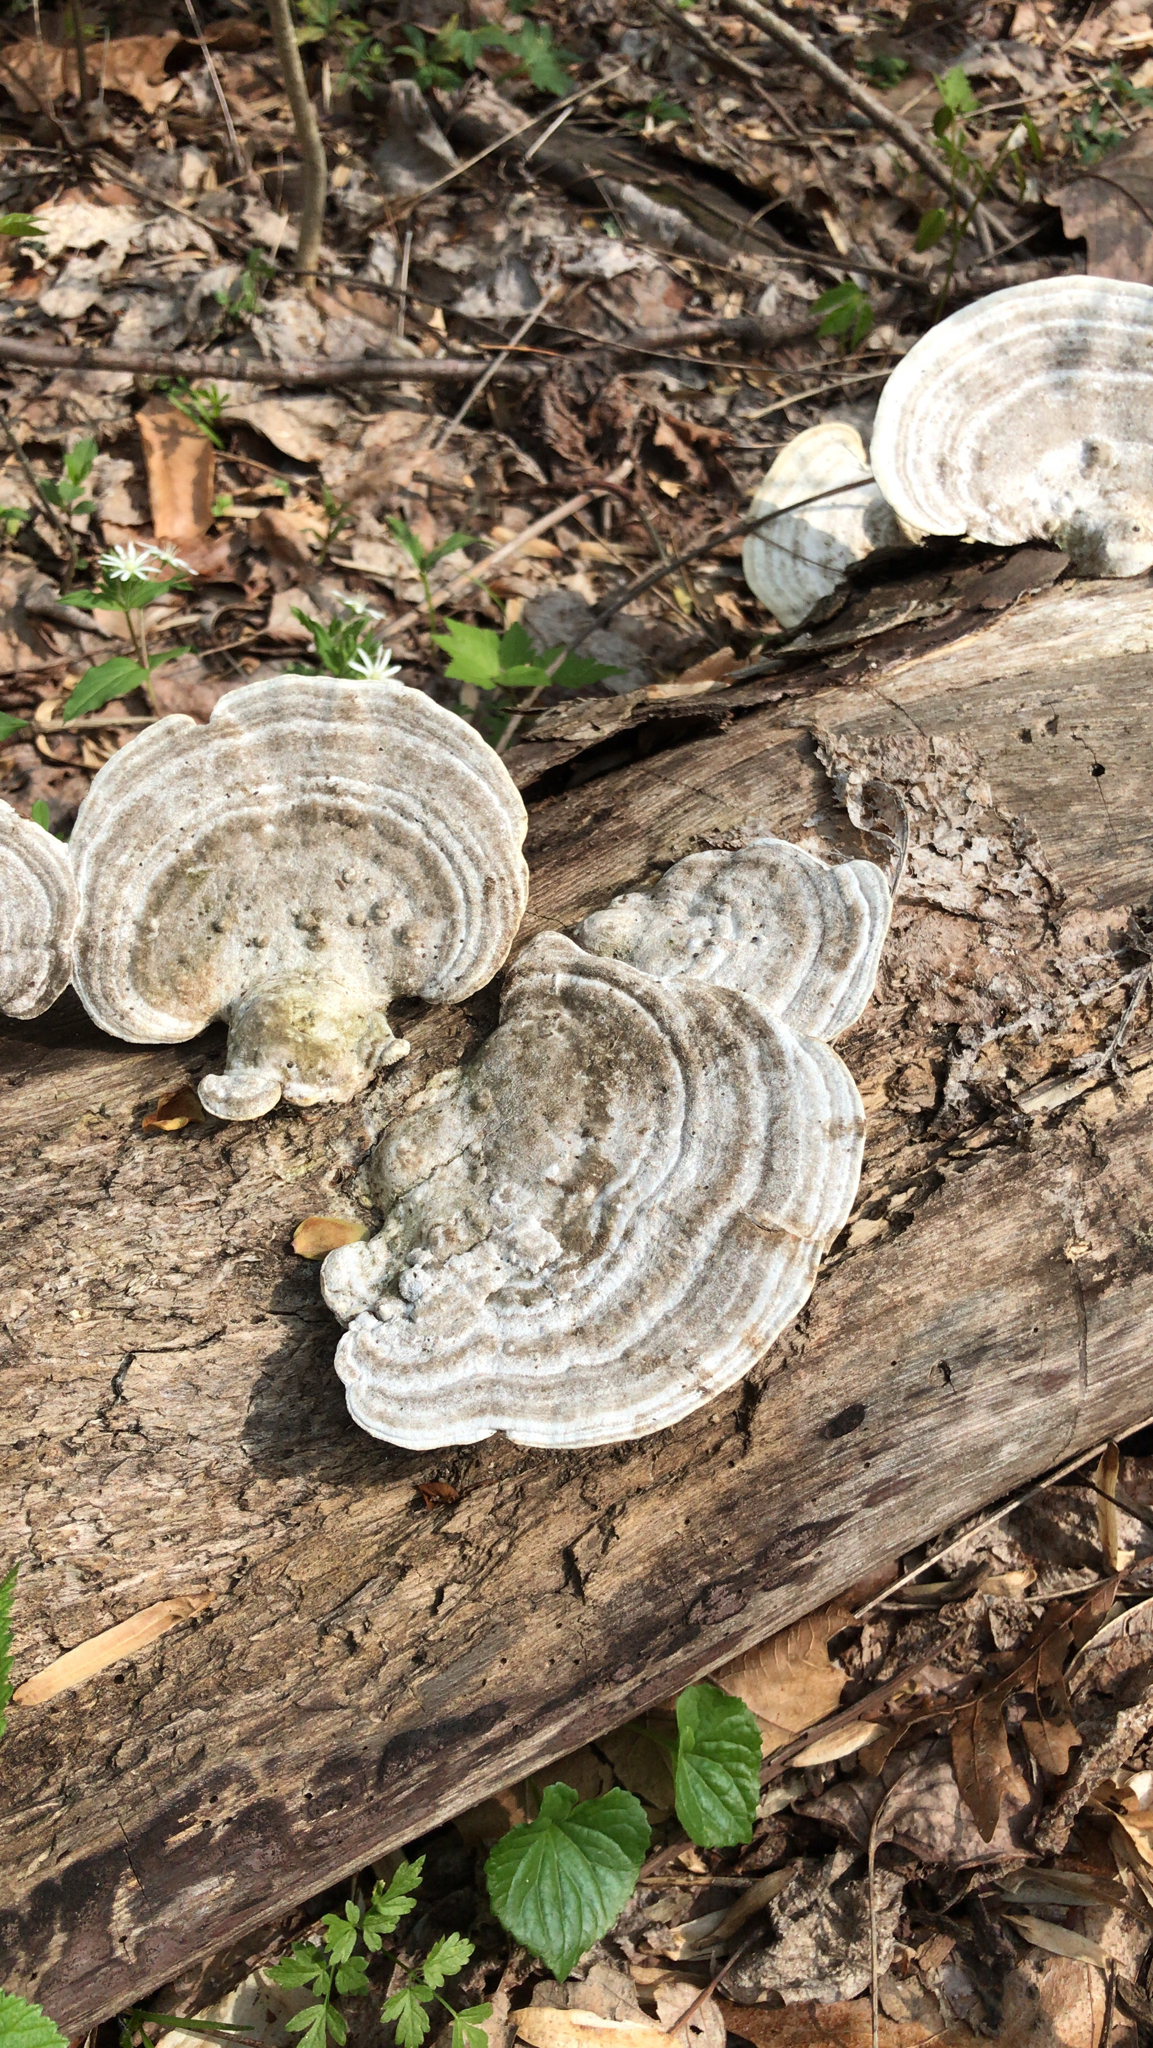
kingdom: Fungi
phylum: Basidiomycota
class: Agaricomycetes
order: Polyporales
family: Polyporaceae
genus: Trametes
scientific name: Trametes gibbosa
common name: Lumpy bracket
